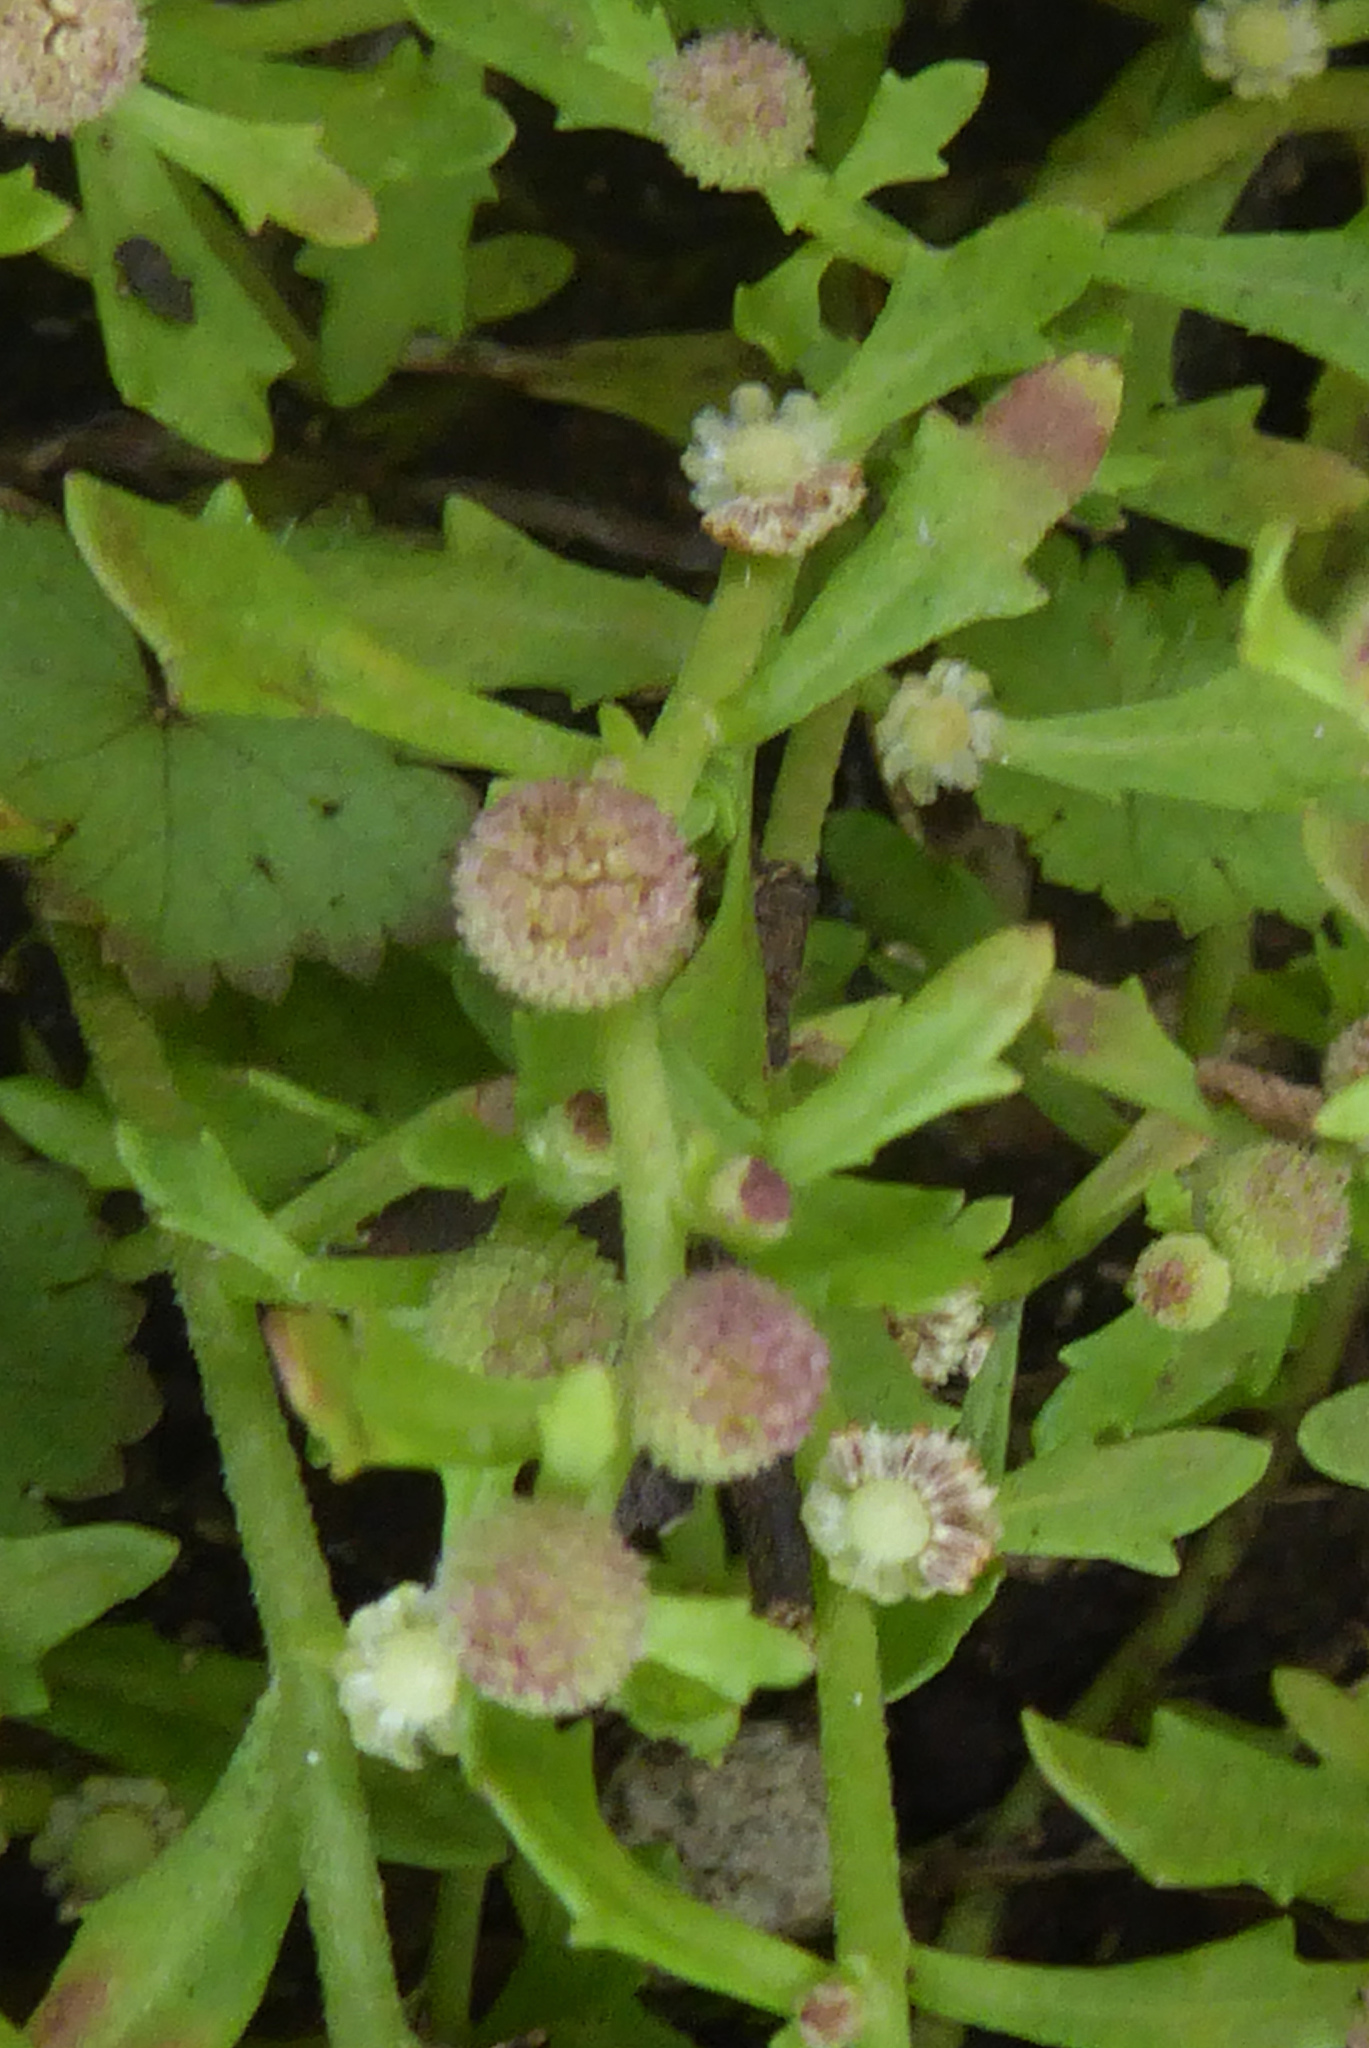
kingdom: Plantae
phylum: Tracheophyta
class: Magnoliopsida
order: Asterales
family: Asteraceae
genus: Centipeda
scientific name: Centipeda minima
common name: Spreading sneezeweed
